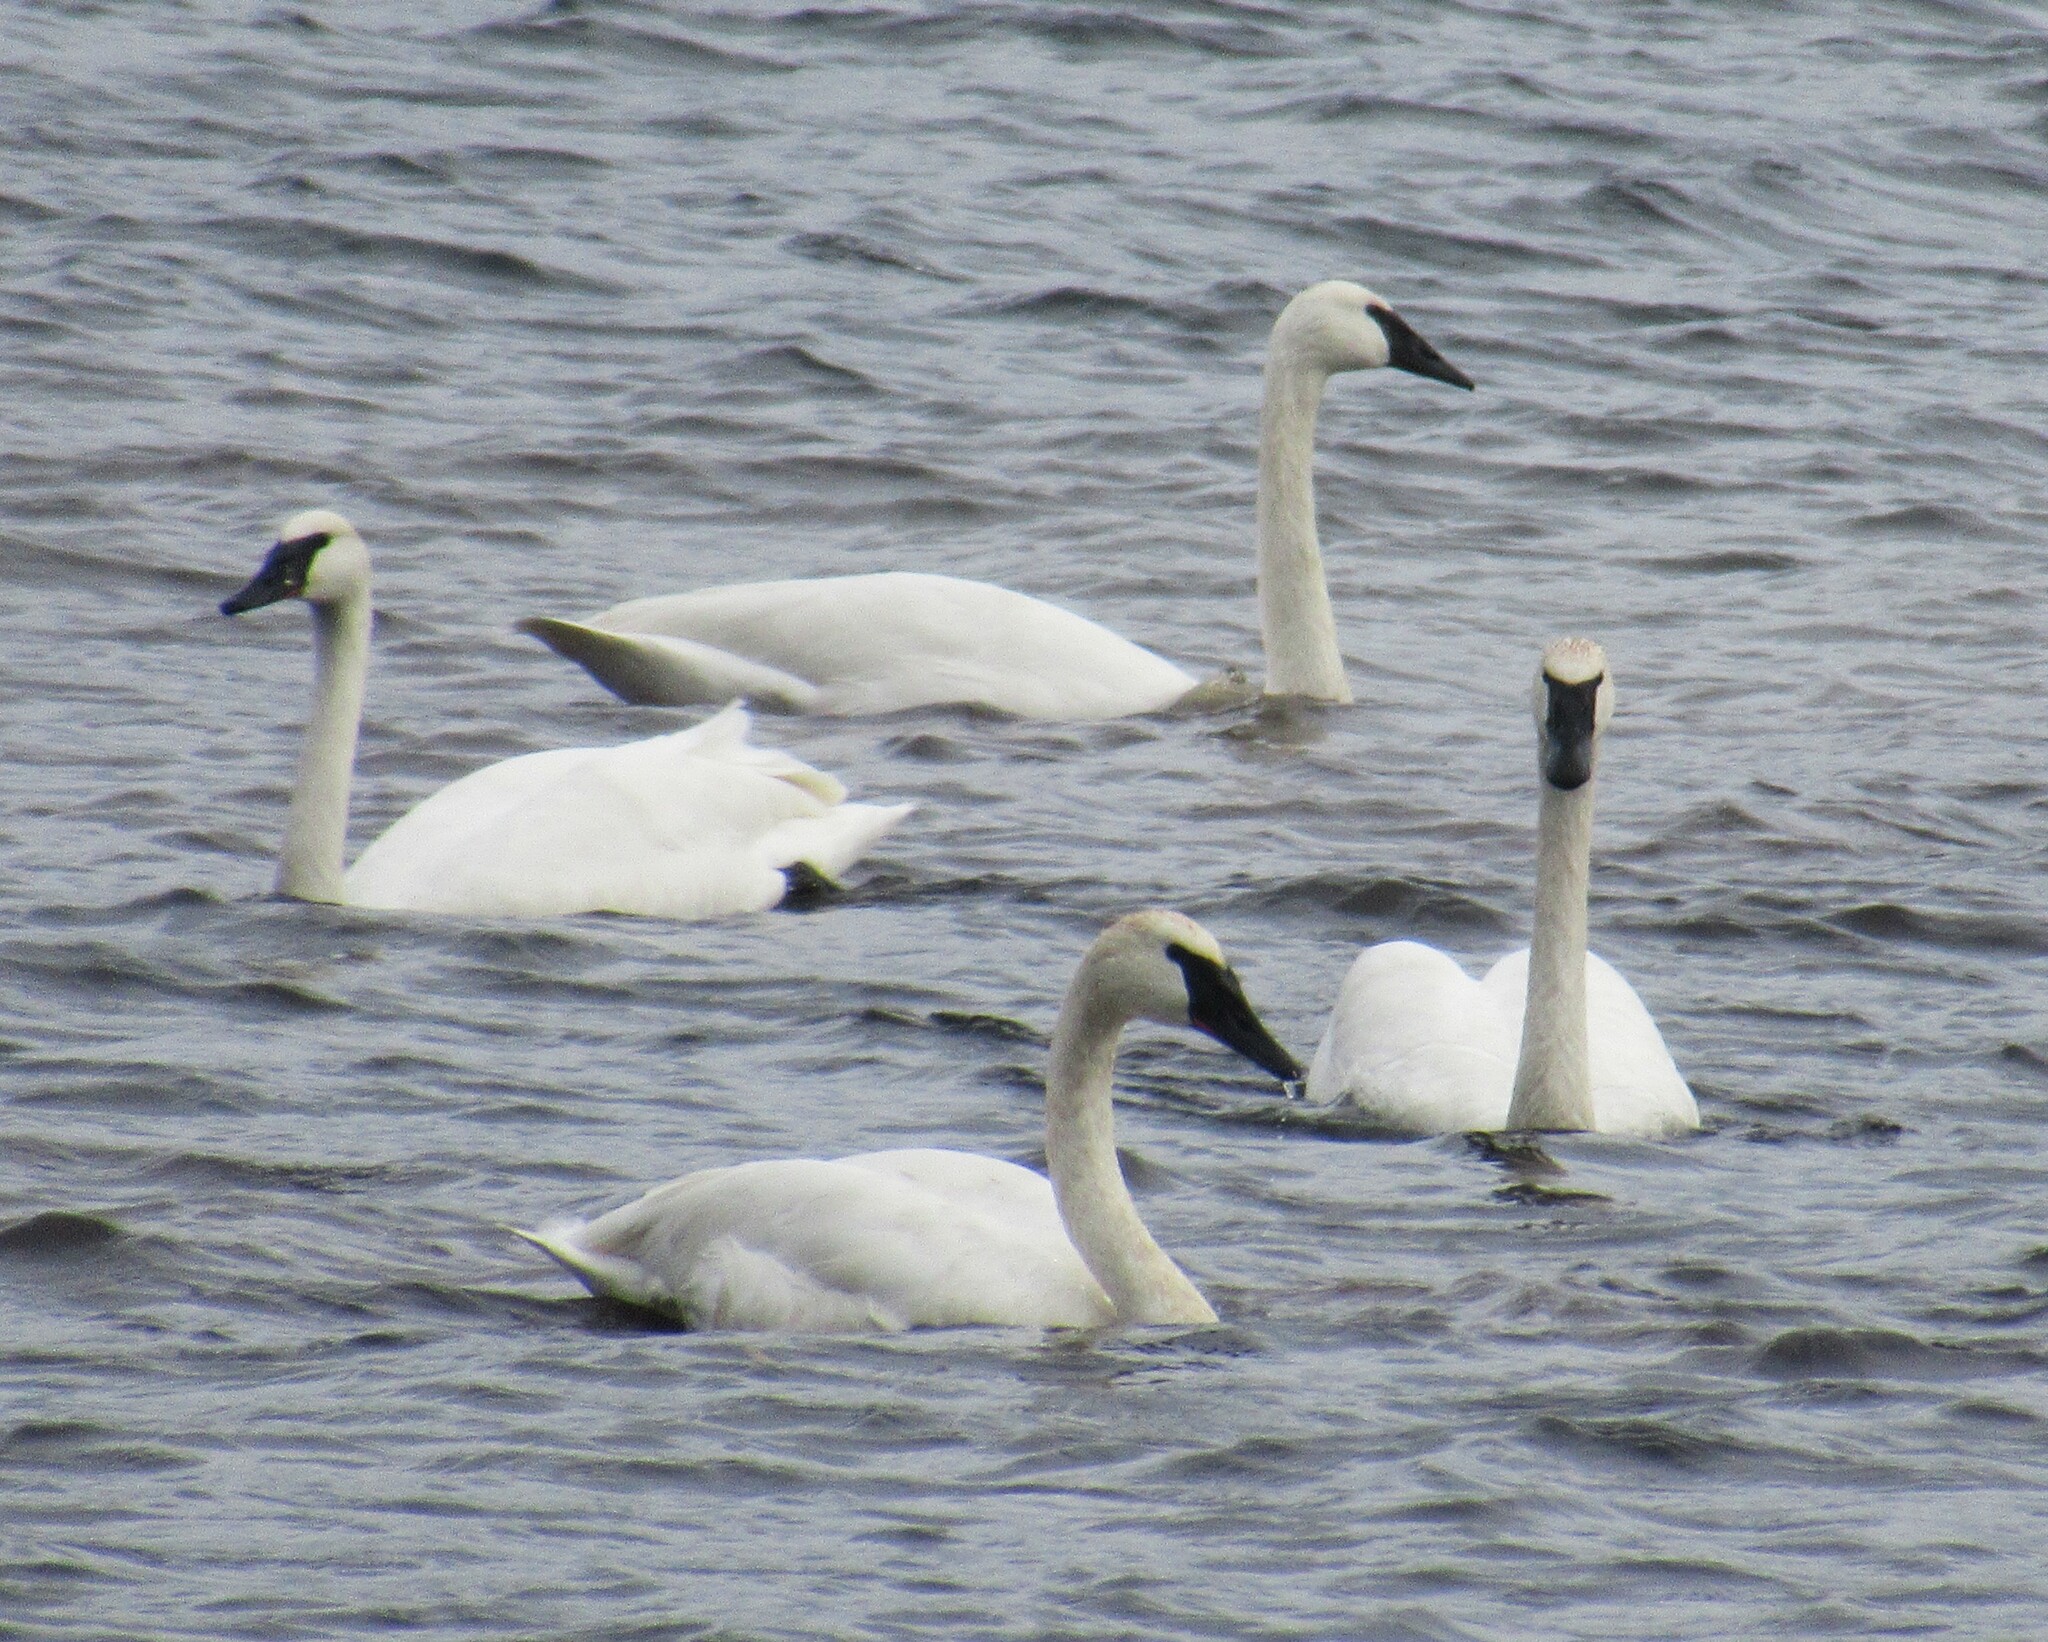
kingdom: Animalia
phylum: Chordata
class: Aves
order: Anseriformes
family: Anatidae
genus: Cygnus
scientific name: Cygnus buccinator
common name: Trumpeter swan
